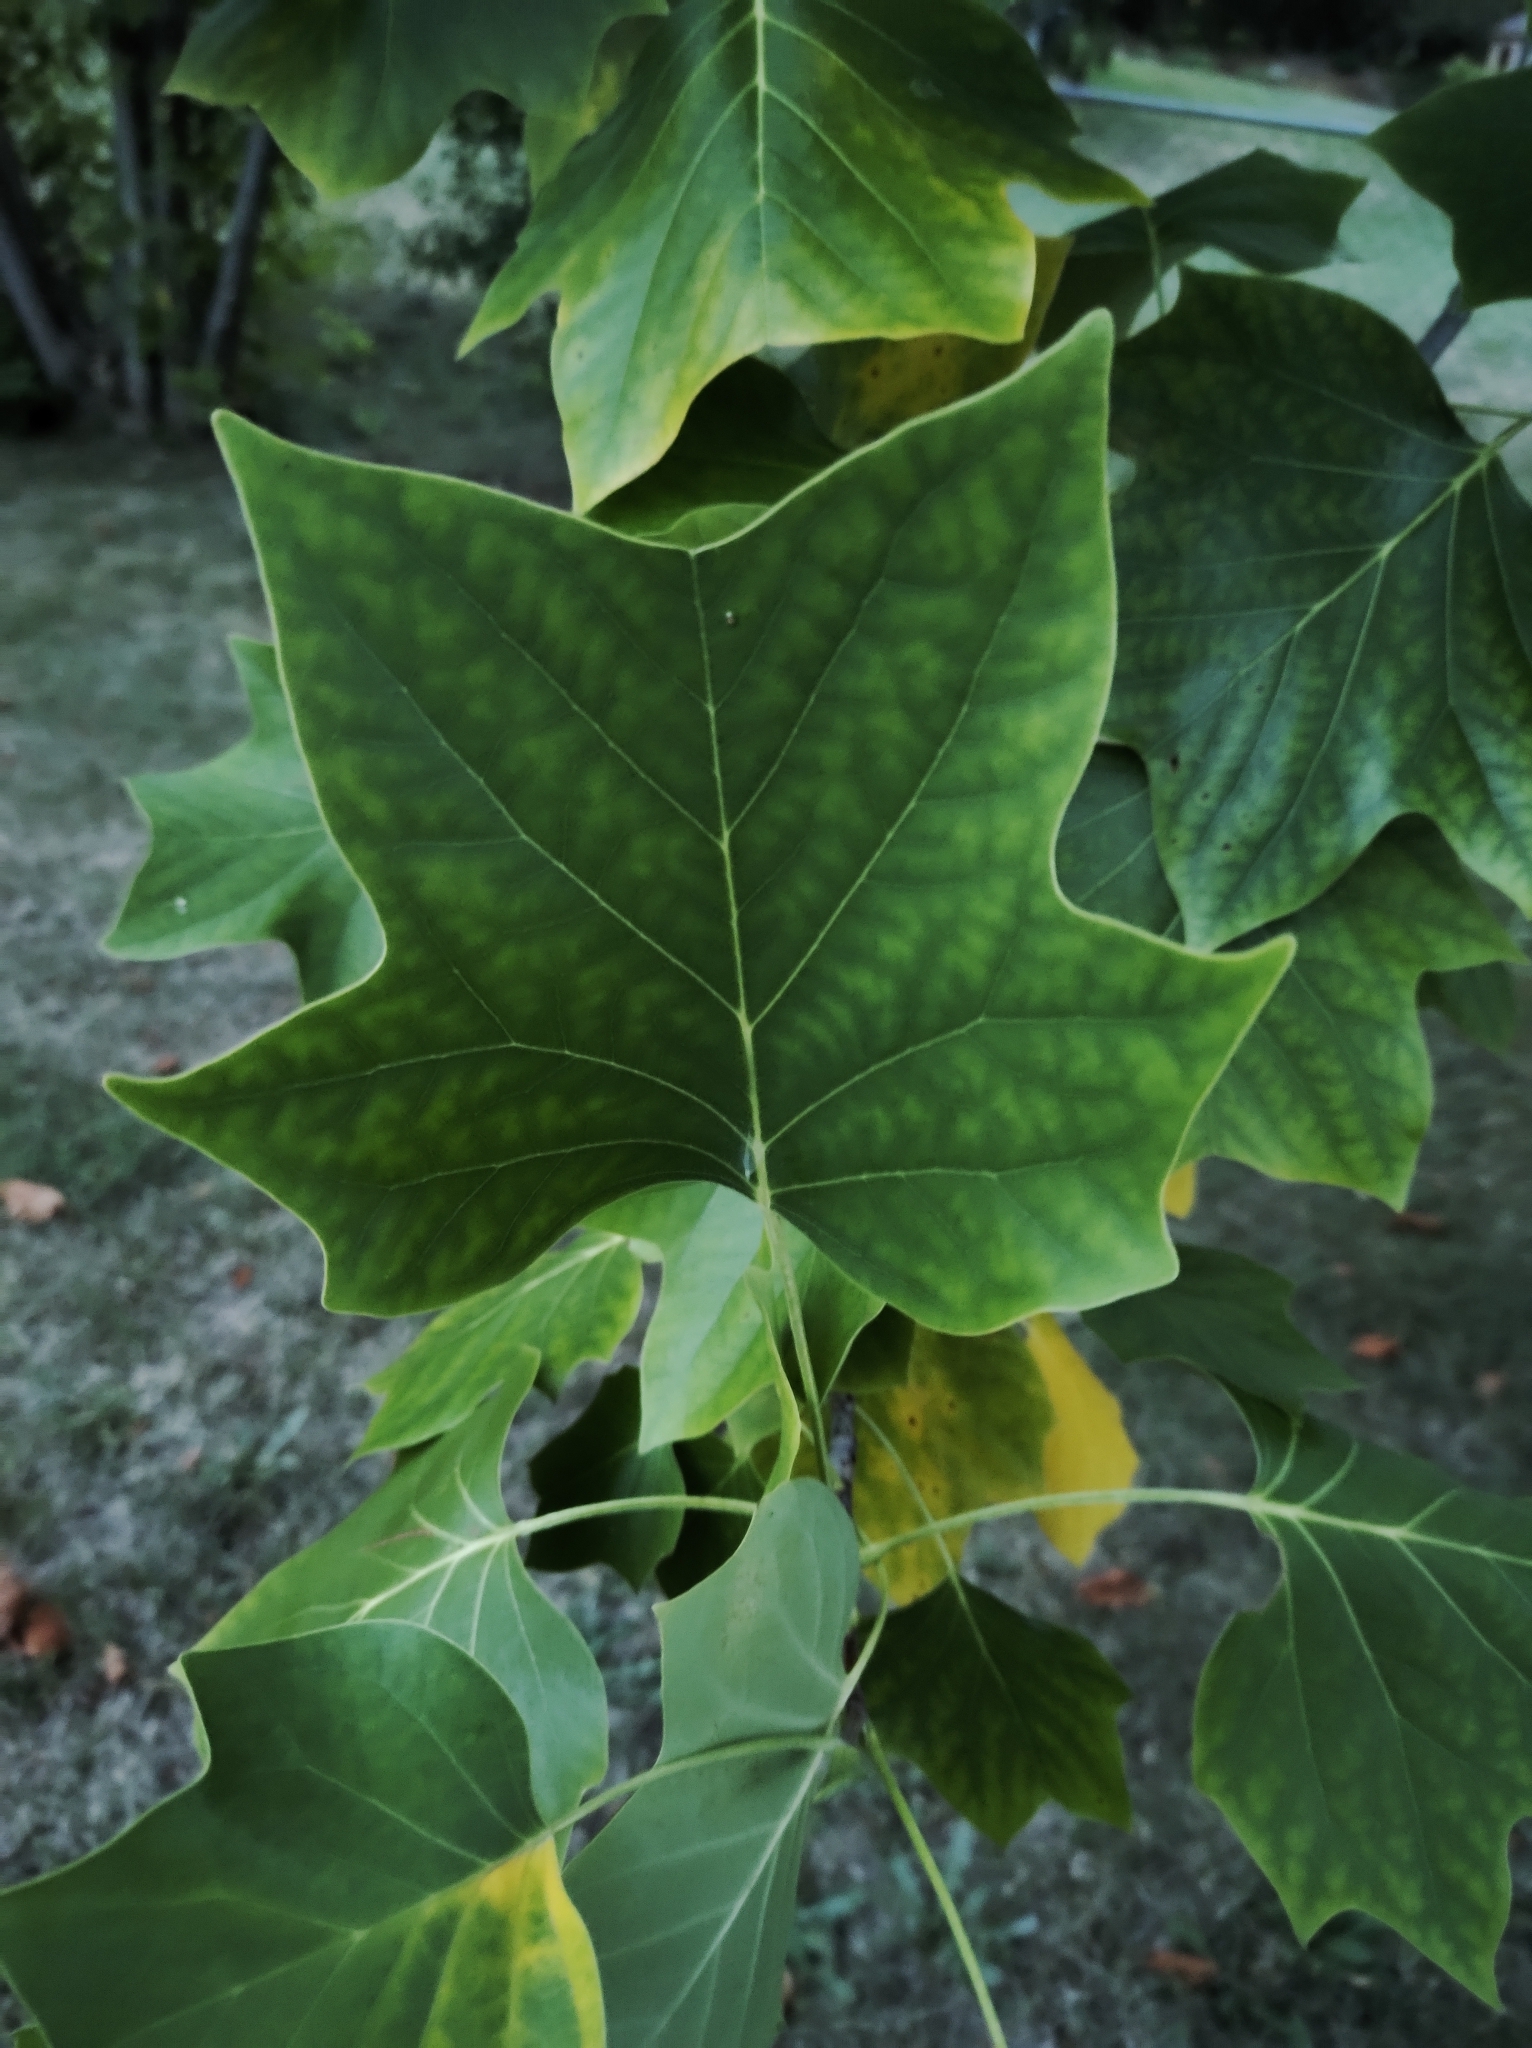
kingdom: Plantae
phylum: Tracheophyta
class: Magnoliopsida
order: Magnoliales
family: Magnoliaceae
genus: Liriodendron
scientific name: Liriodendron tulipifera
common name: Tulip tree
